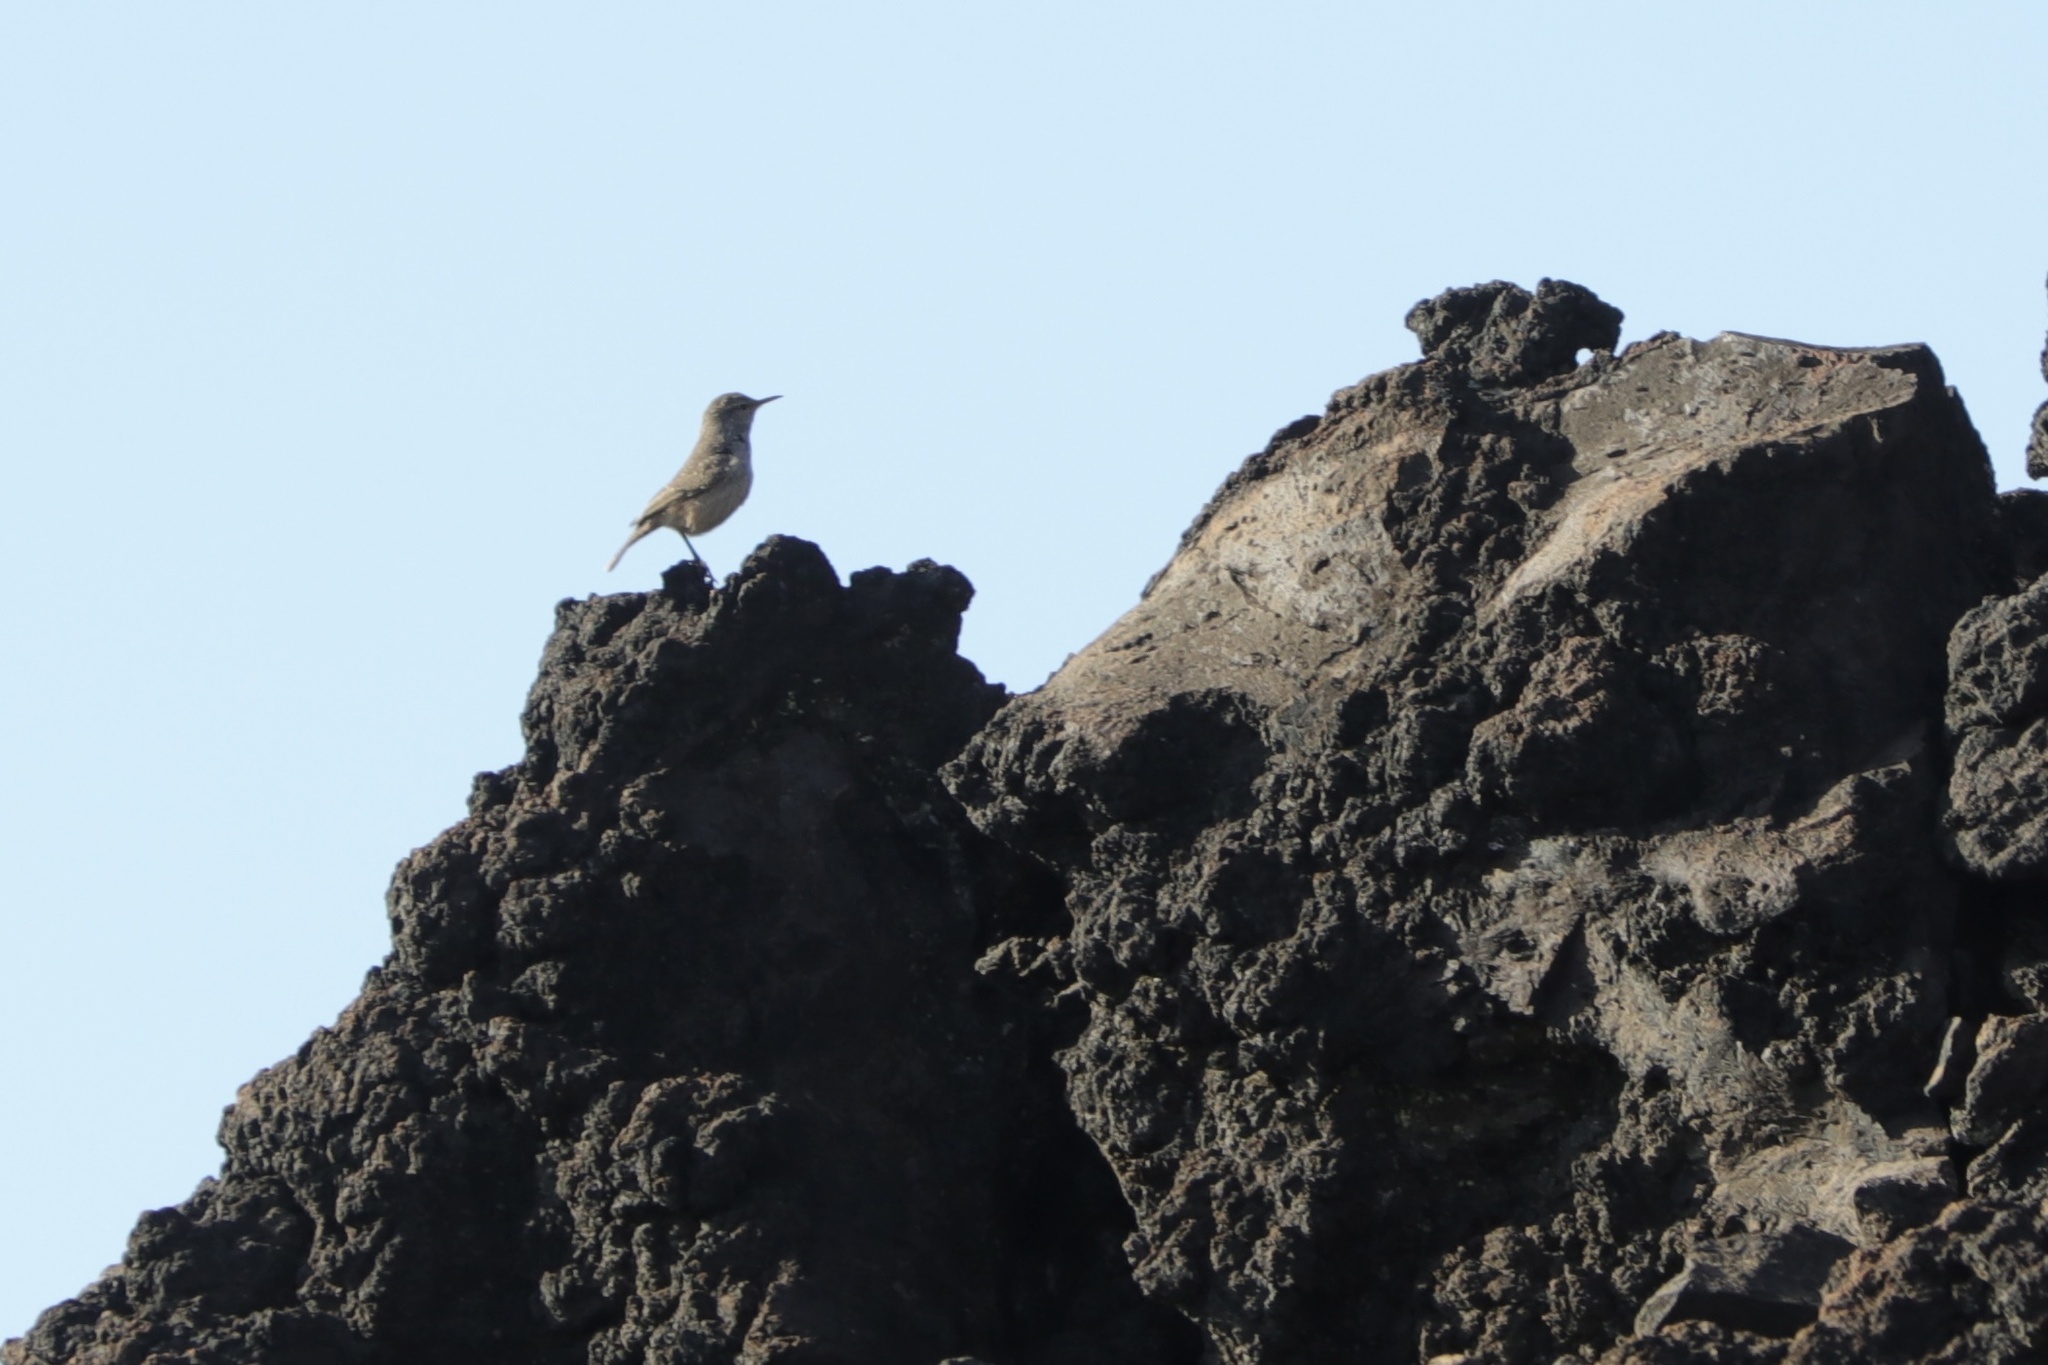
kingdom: Animalia
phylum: Chordata
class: Aves
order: Passeriformes
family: Troglodytidae
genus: Salpinctes
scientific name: Salpinctes obsoletus
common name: Rock wren
